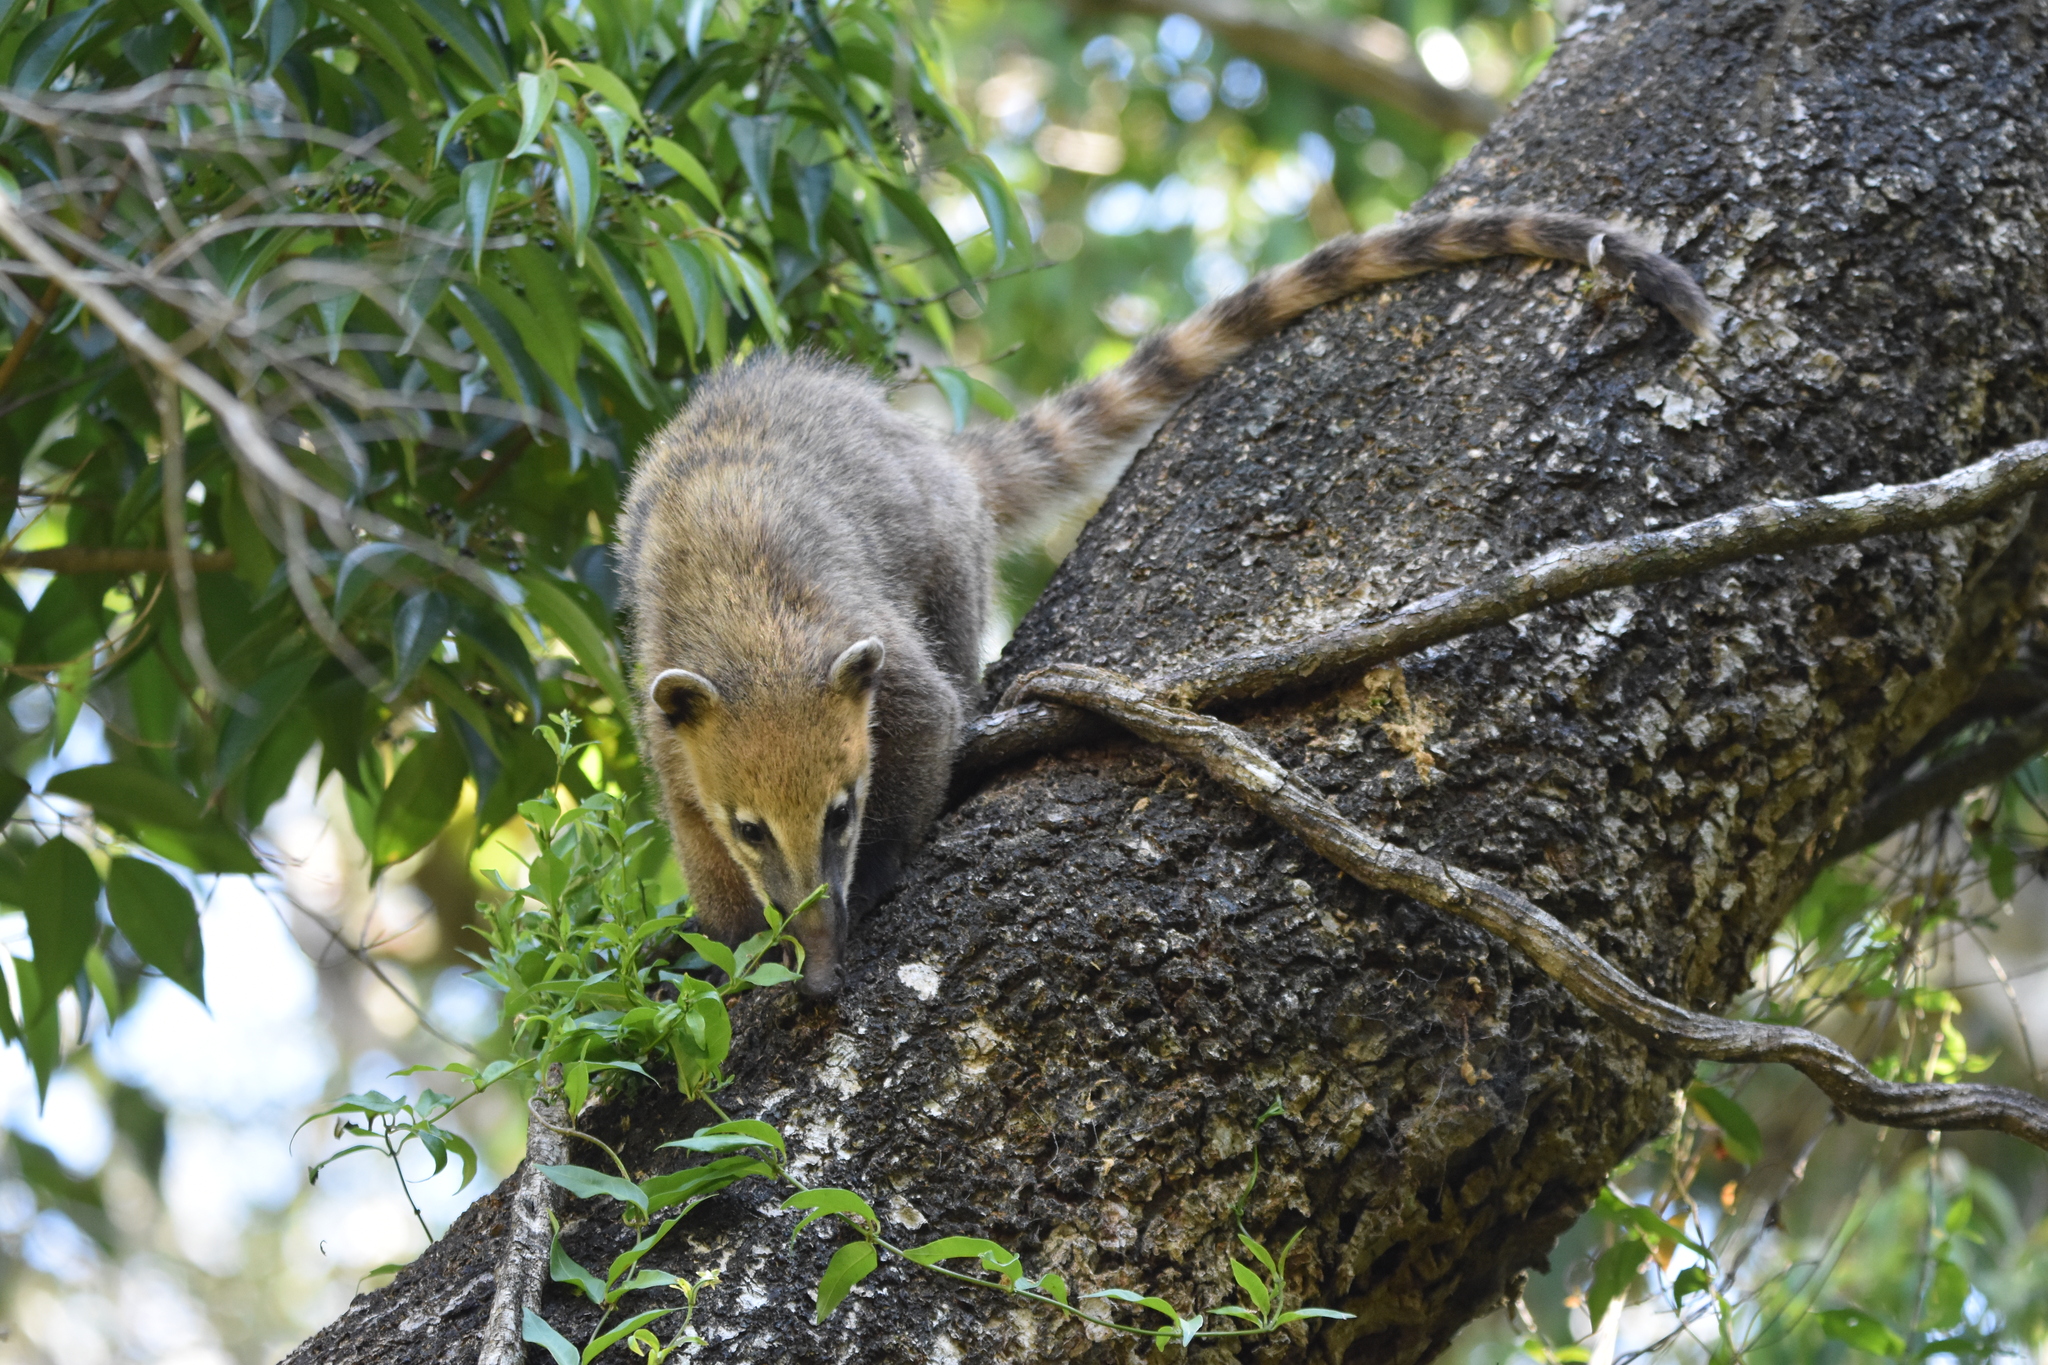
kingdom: Animalia
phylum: Chordata
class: Mammalia
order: Carnivora
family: Procyonidae
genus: Nasua
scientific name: Nasua nasua
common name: South american coati
